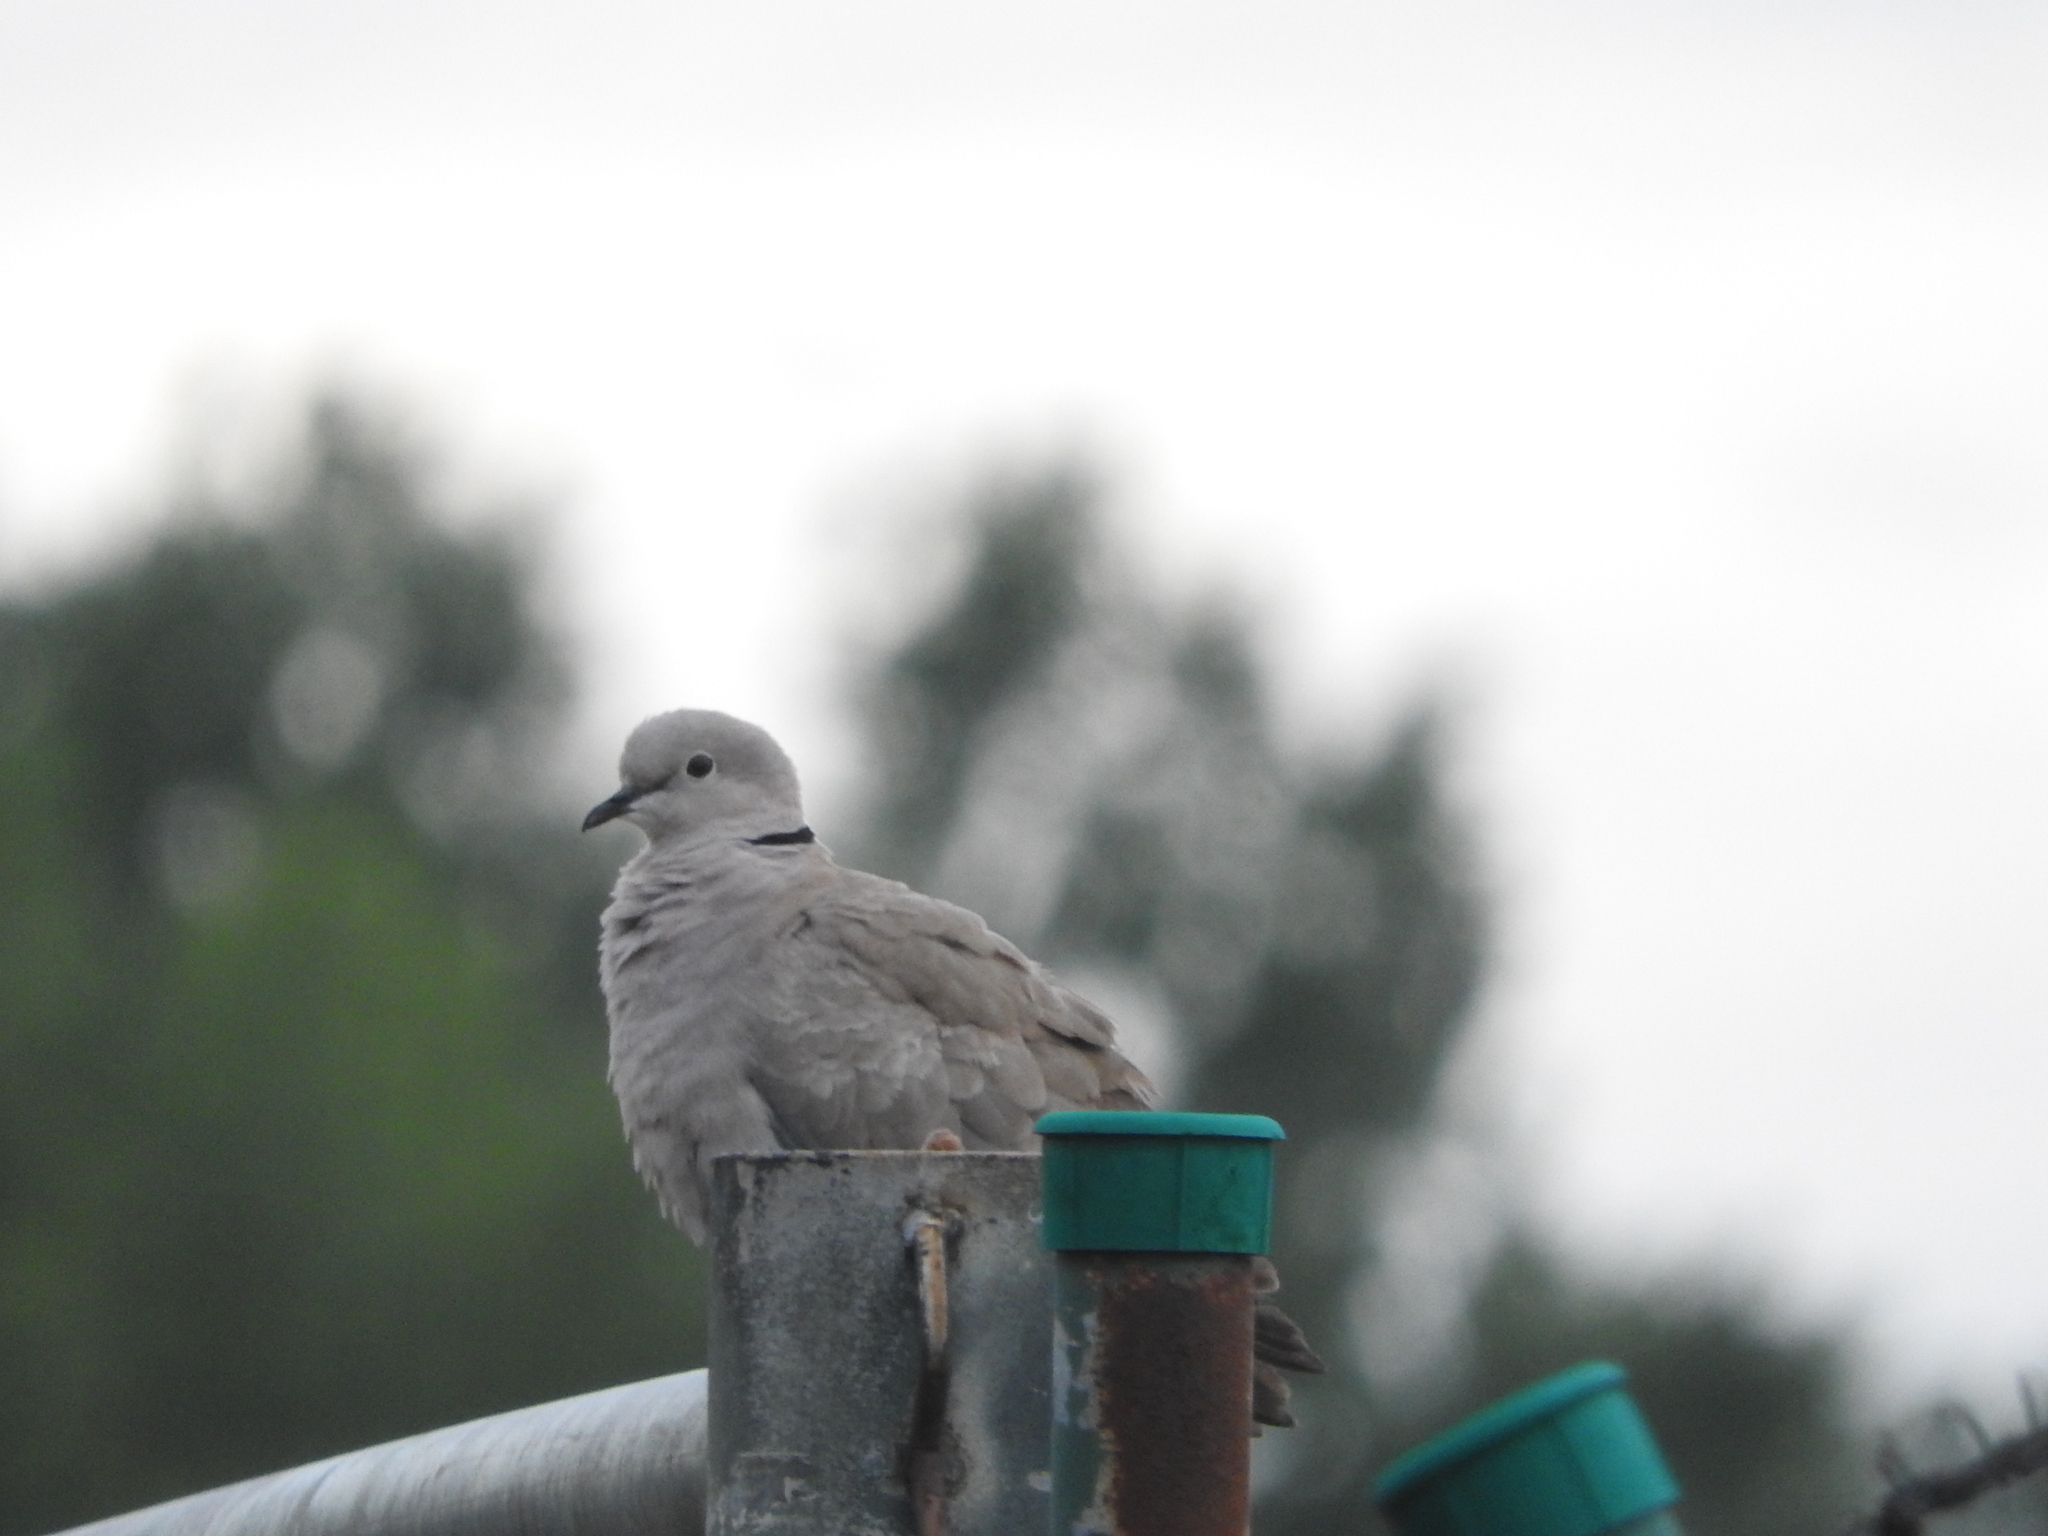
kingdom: Animalia
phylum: Chordata
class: Aves
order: Columbiformes
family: Columbidae
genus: Streptopelia
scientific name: Streptopelia decaocto
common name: Eurasian collared dove
